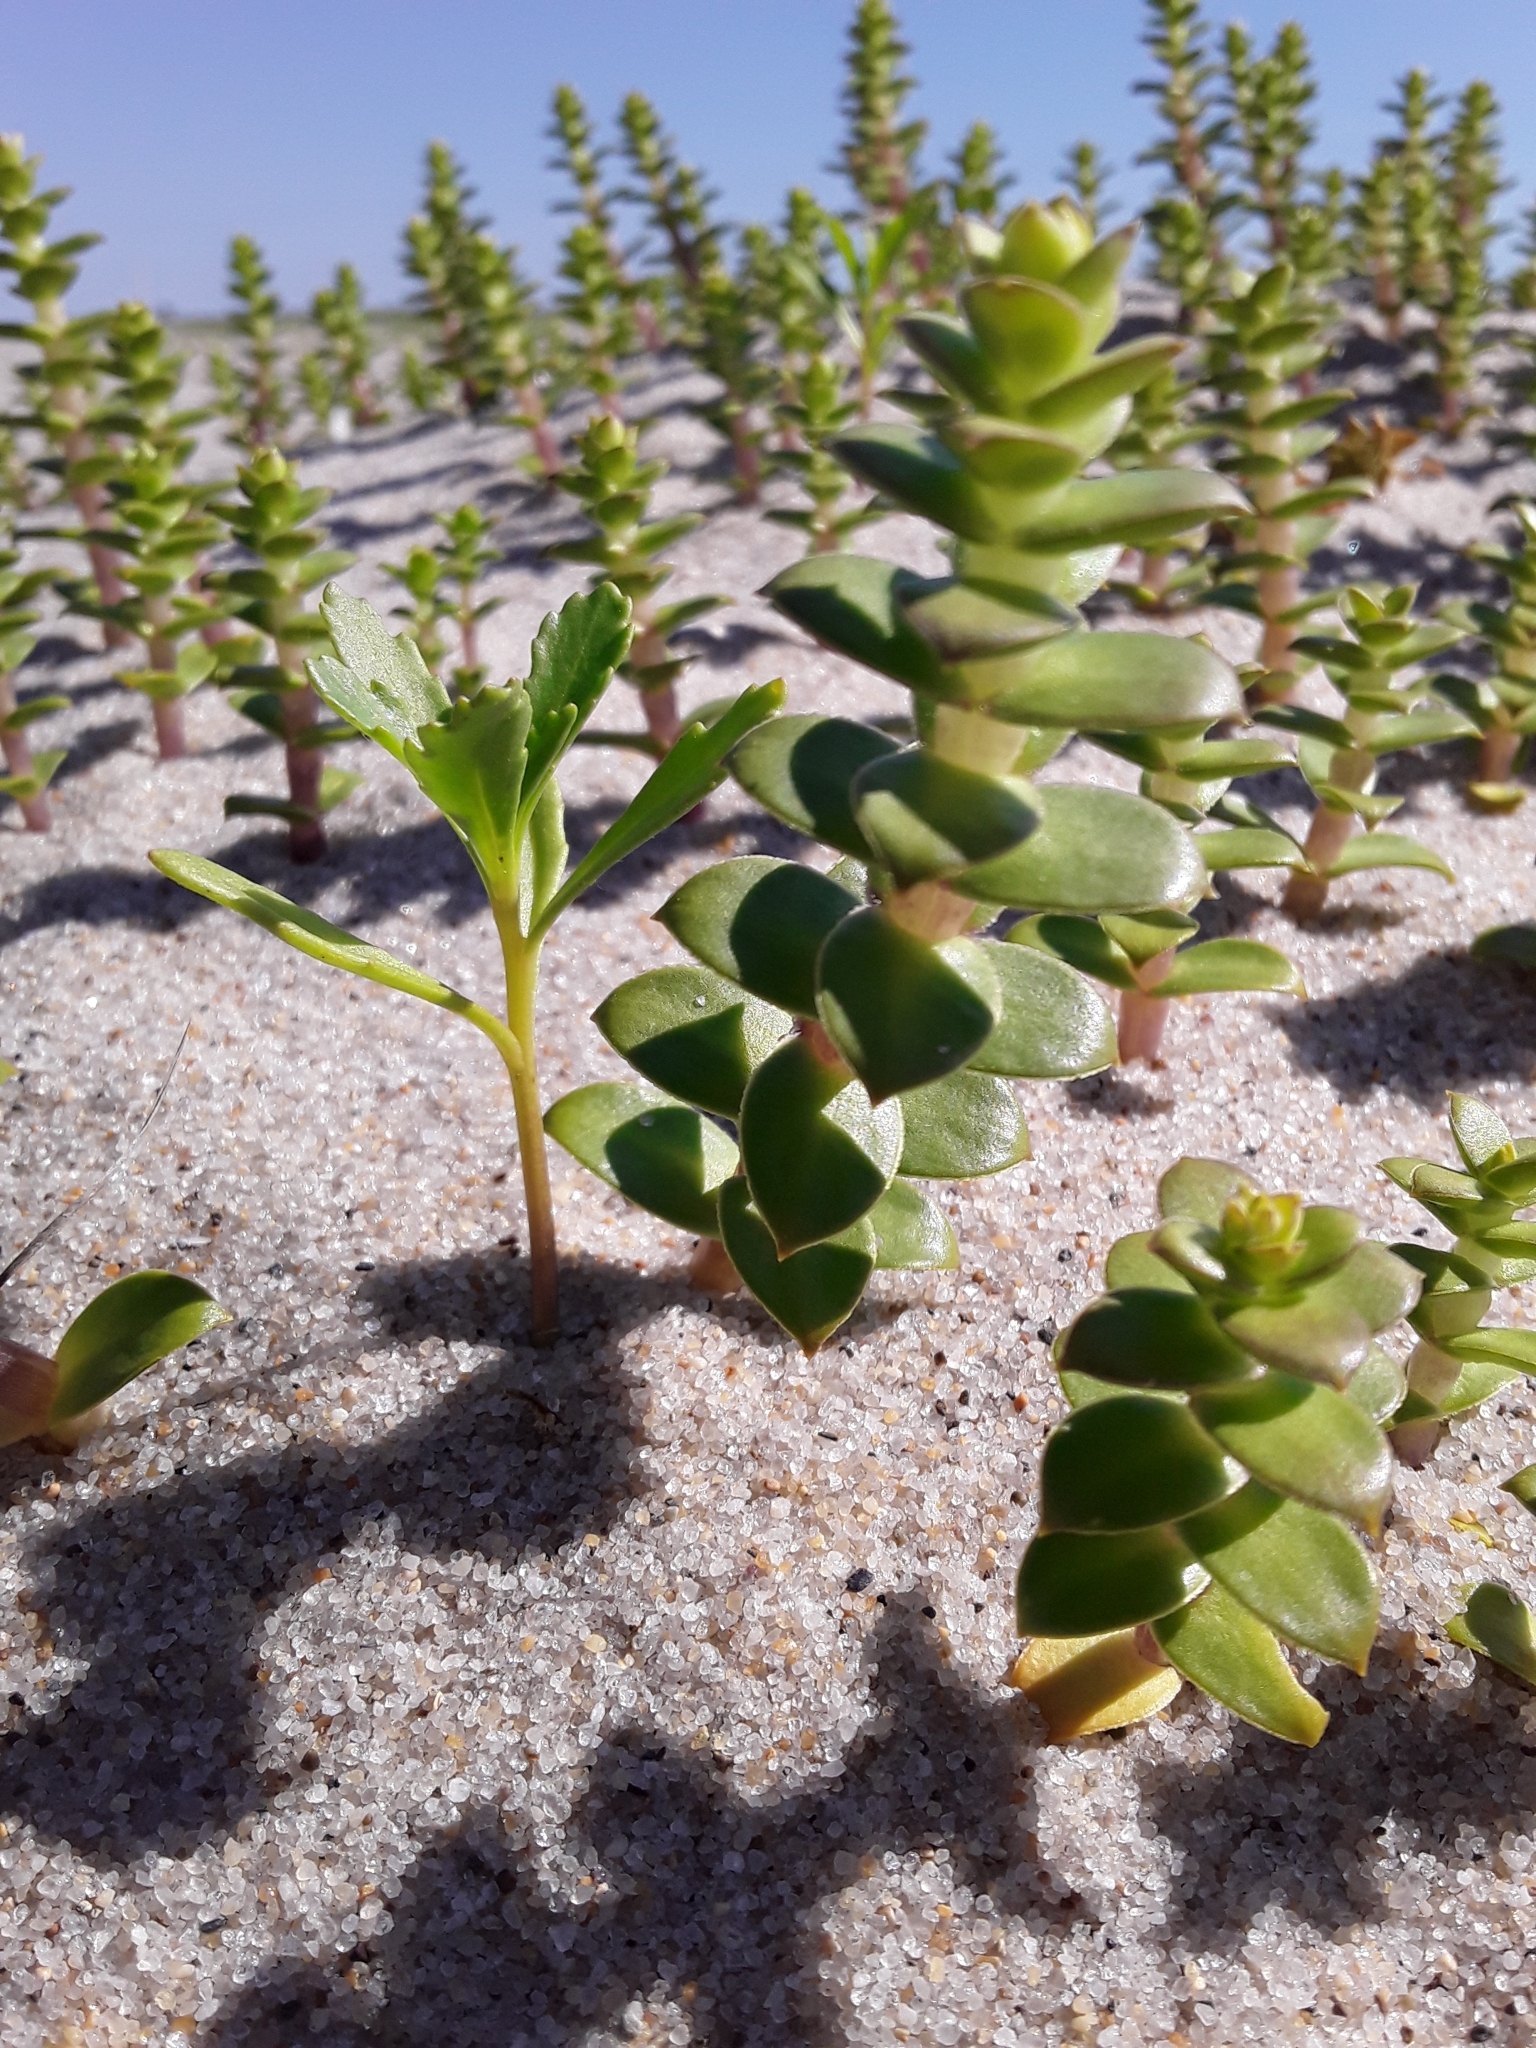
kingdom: Plantae
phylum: Tracheophyta
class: Magnoliopsida
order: Caryophyllales
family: Caryophyllaceae
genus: Honckenya
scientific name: Honckenya peploides
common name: Sea sandwort
